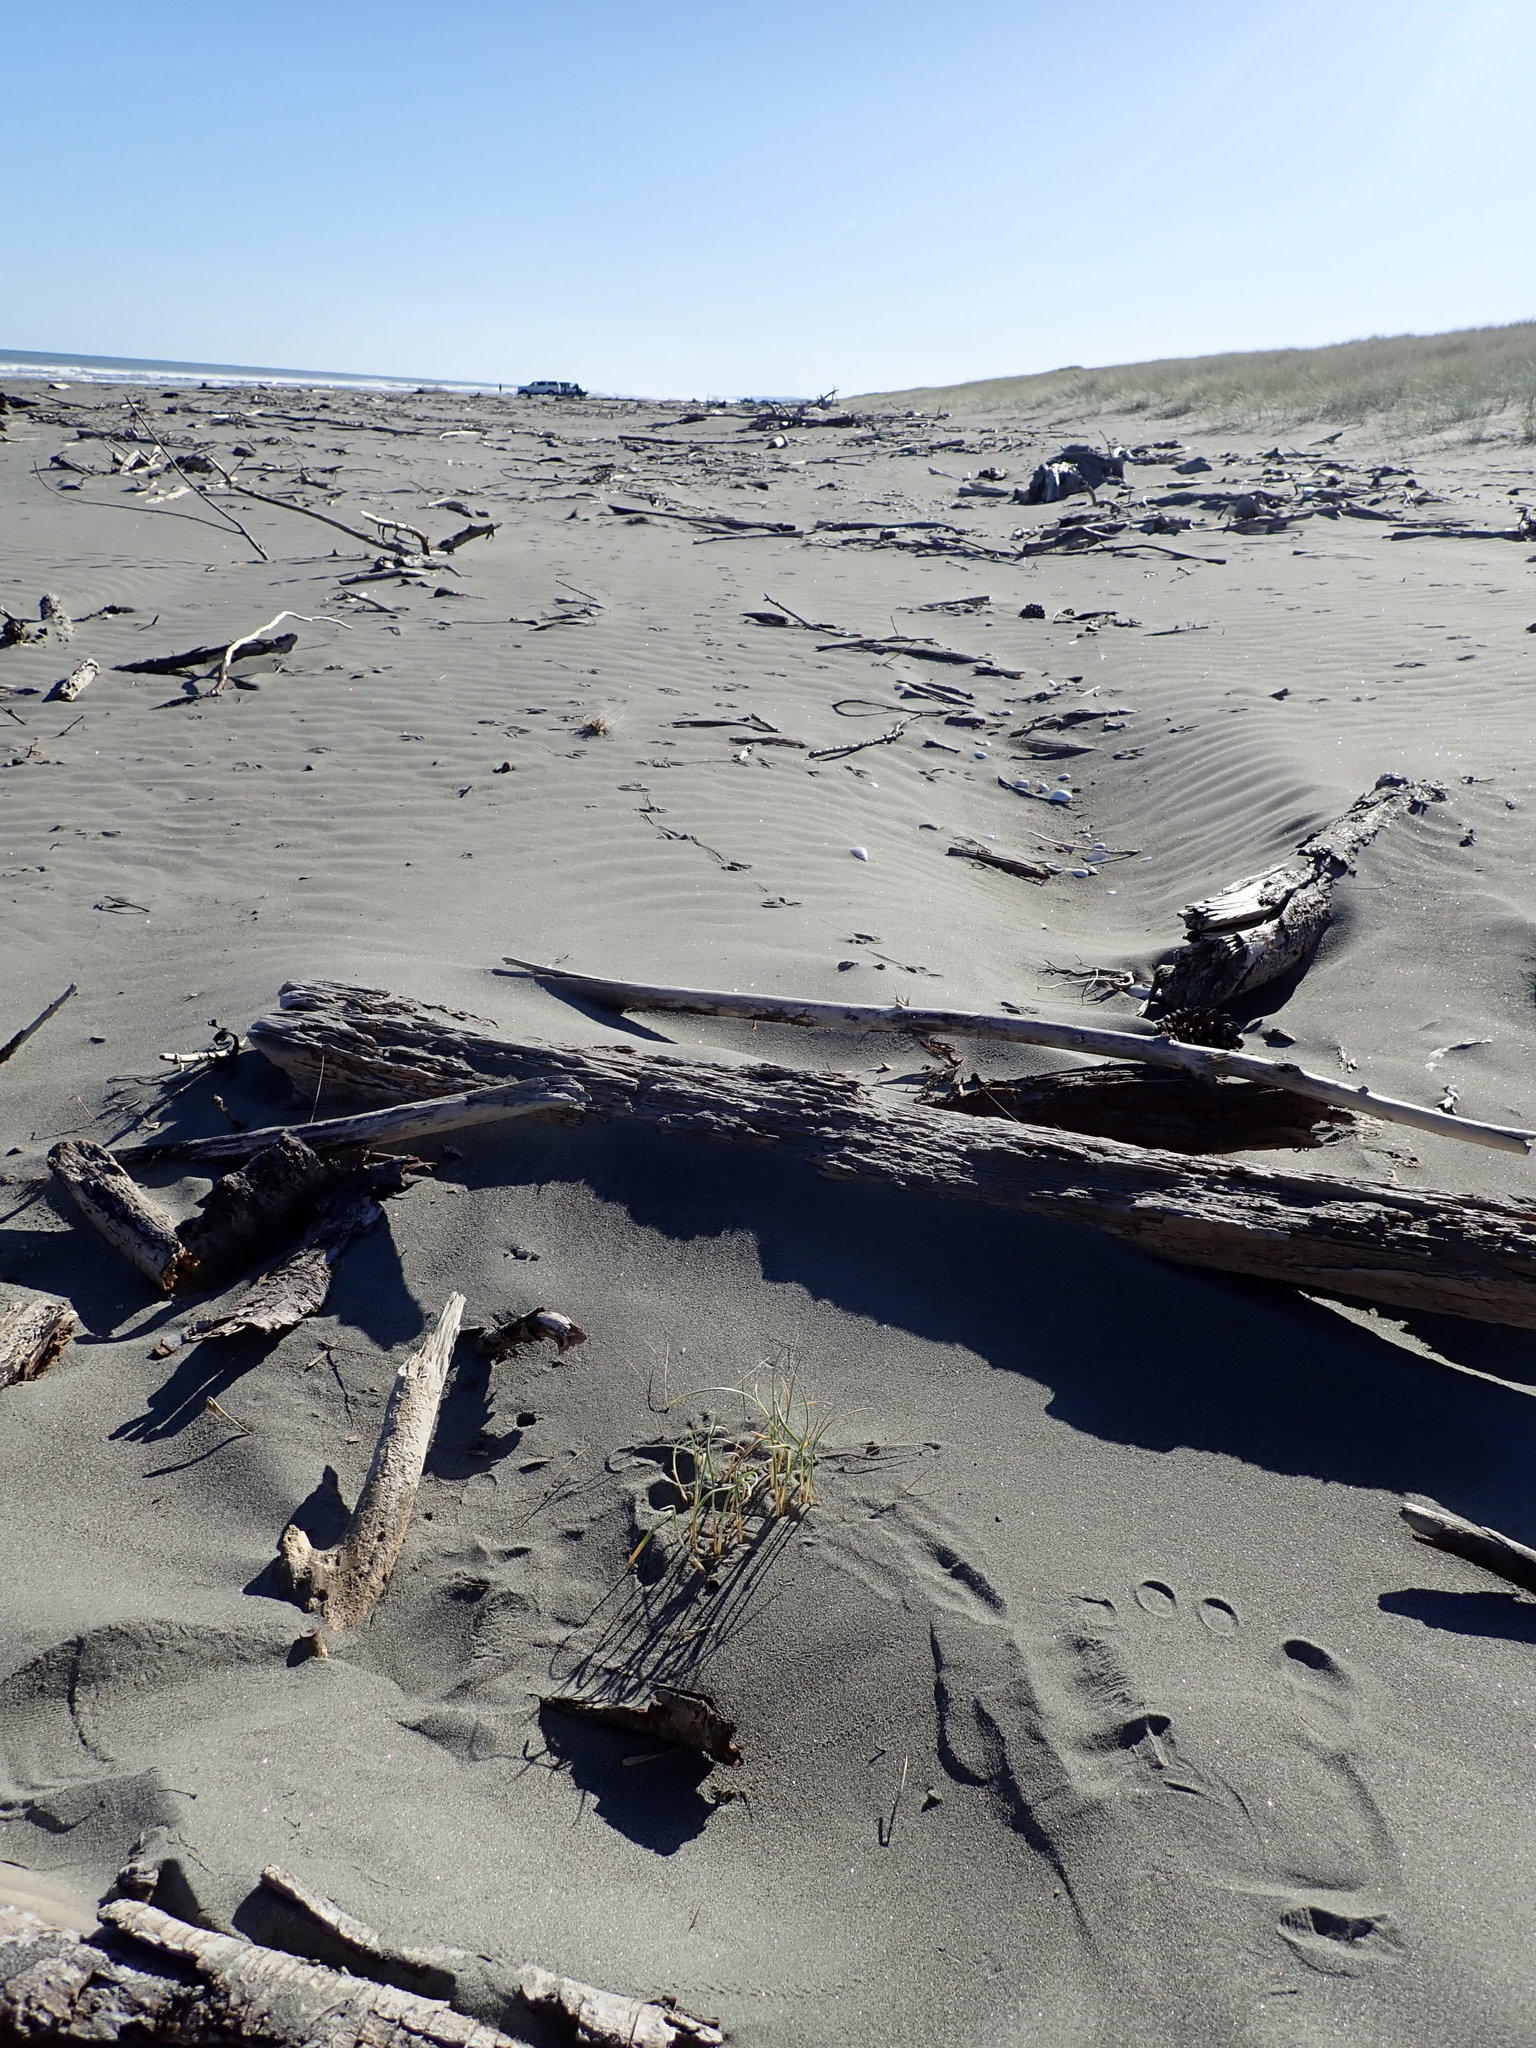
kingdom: Plantae
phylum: Tracheophyta
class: Liliopsida
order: Poales
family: Poaceae
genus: Spinifex
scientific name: Spinifex sericeus
